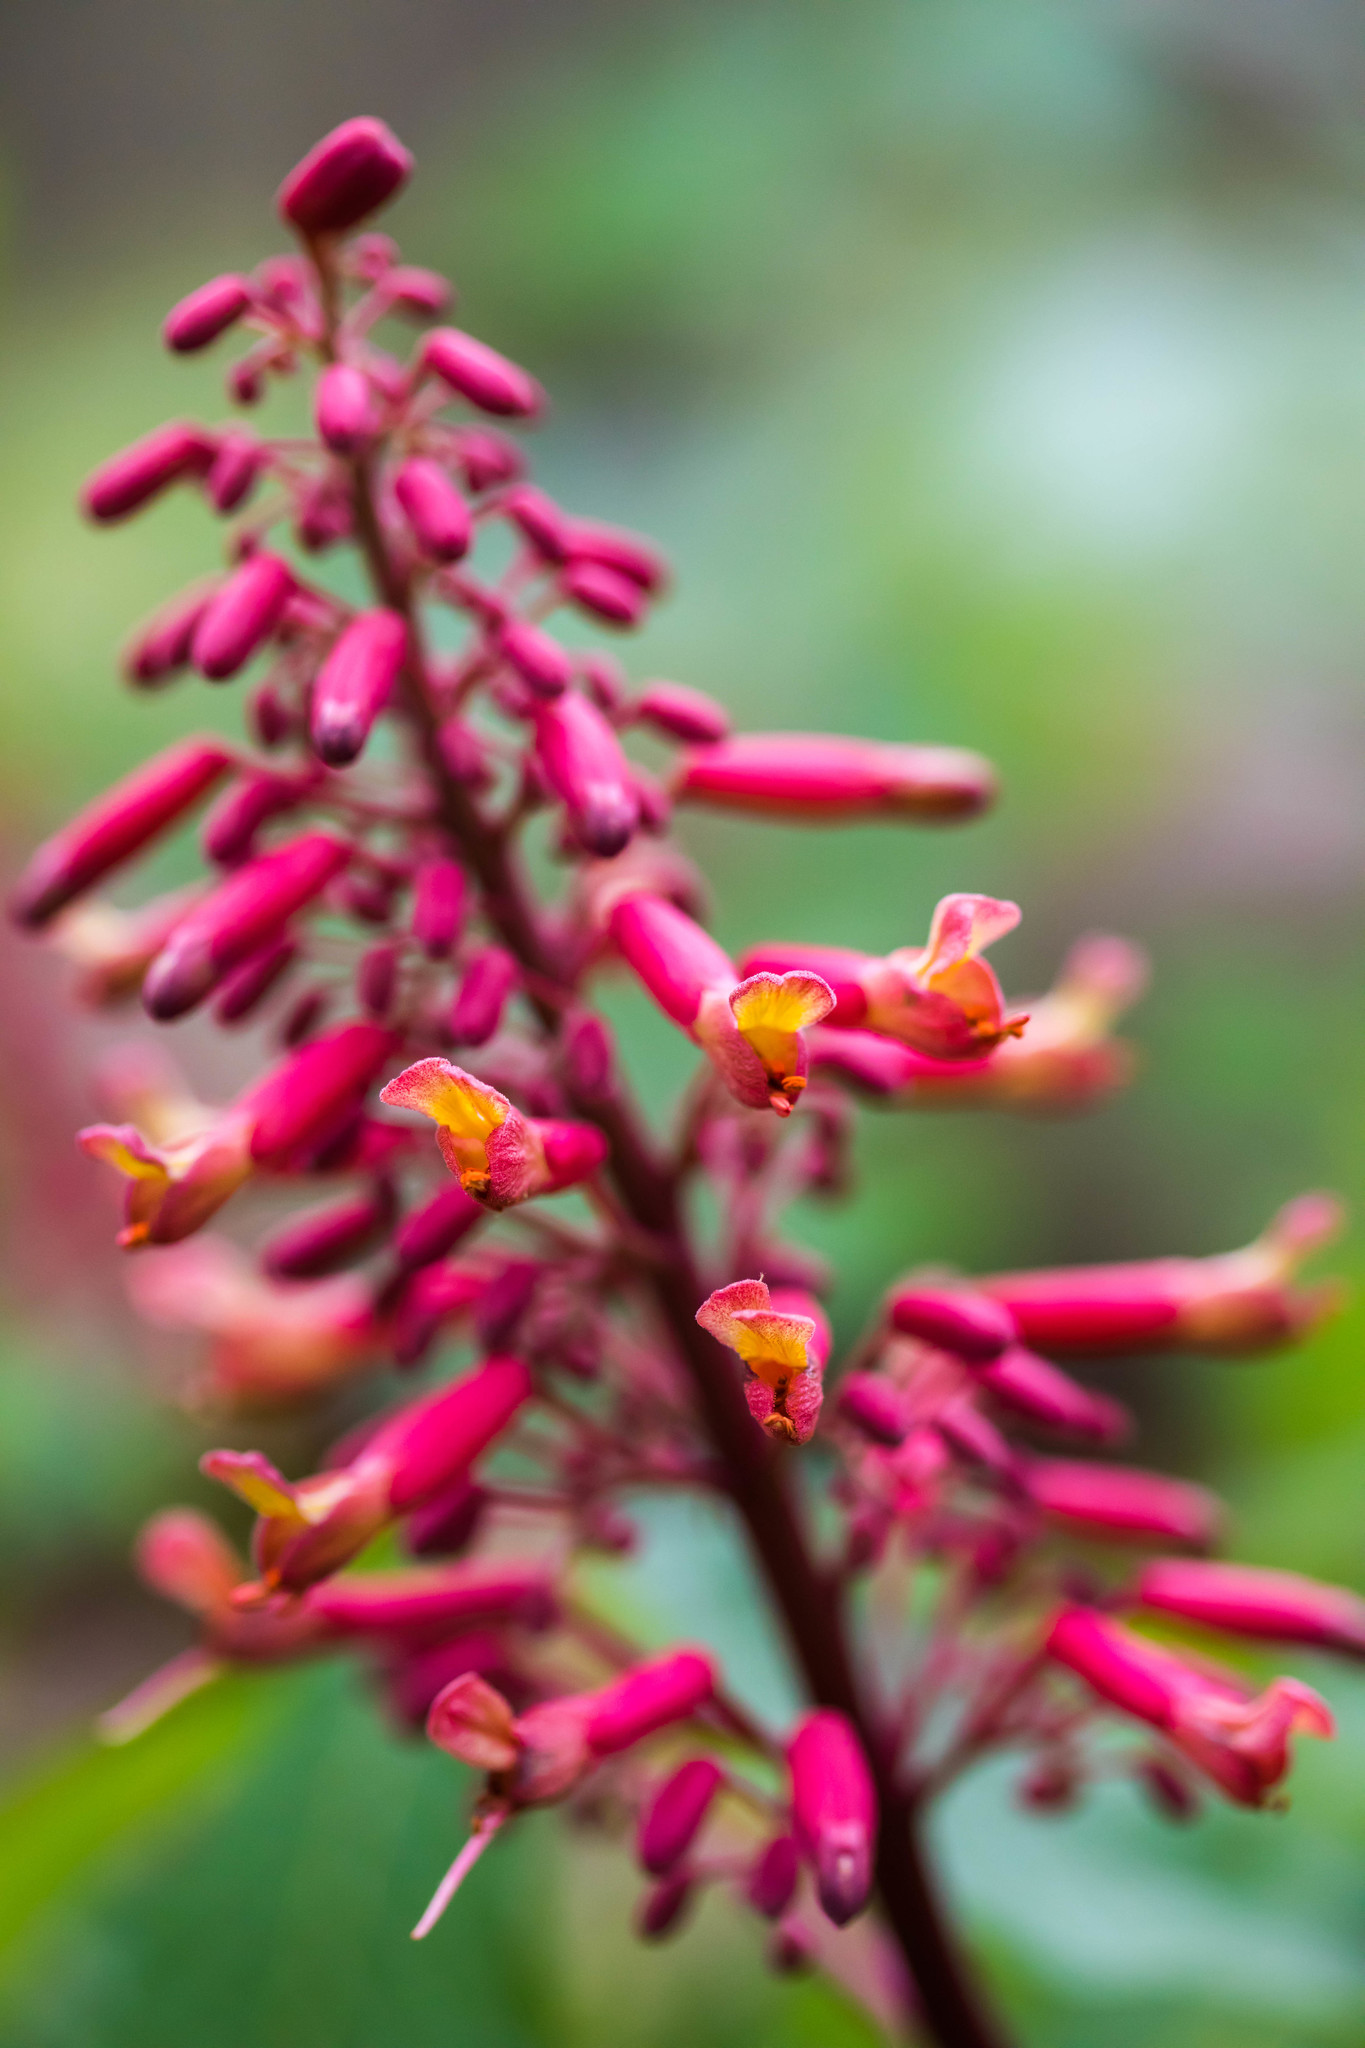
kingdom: Plantae
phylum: Tracheophyta
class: Magnoliopsida
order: Sapindales
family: Sapindaceae
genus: Aesculus
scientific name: Aesculus pavia
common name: Red buckeye
